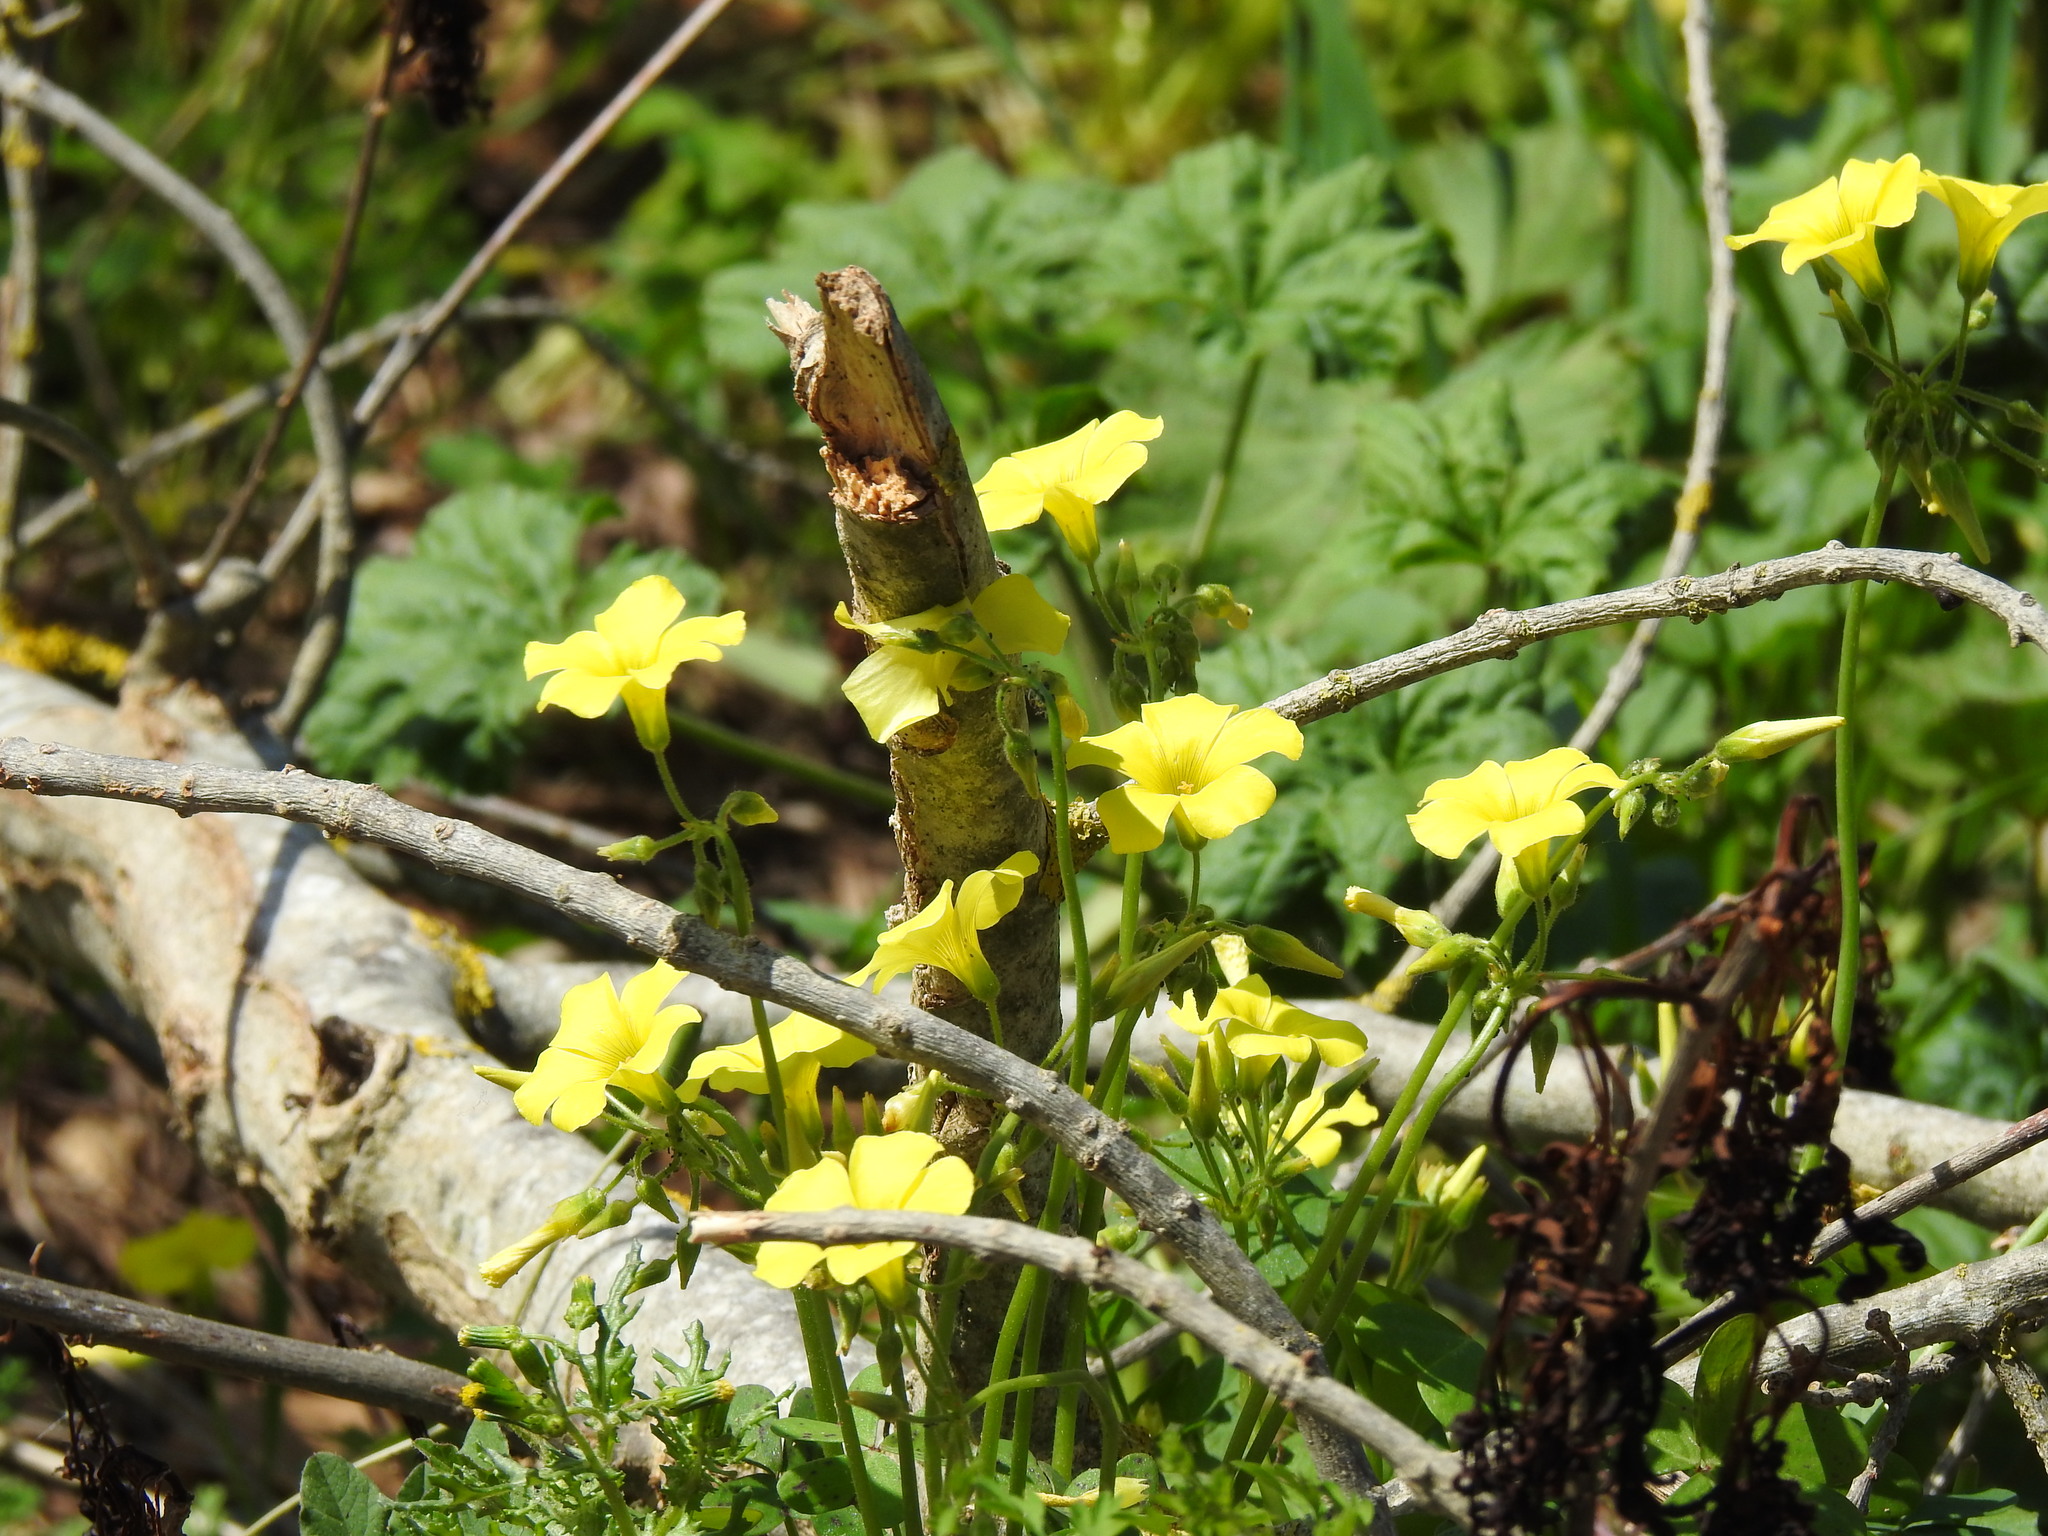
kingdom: Plantae
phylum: Tracheophyta
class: Magnoliopsida
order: Oxalidales
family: Oxalidaceae
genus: Oxalis
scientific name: Oxalis pes-caprae
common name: Bermuda-buttercup
